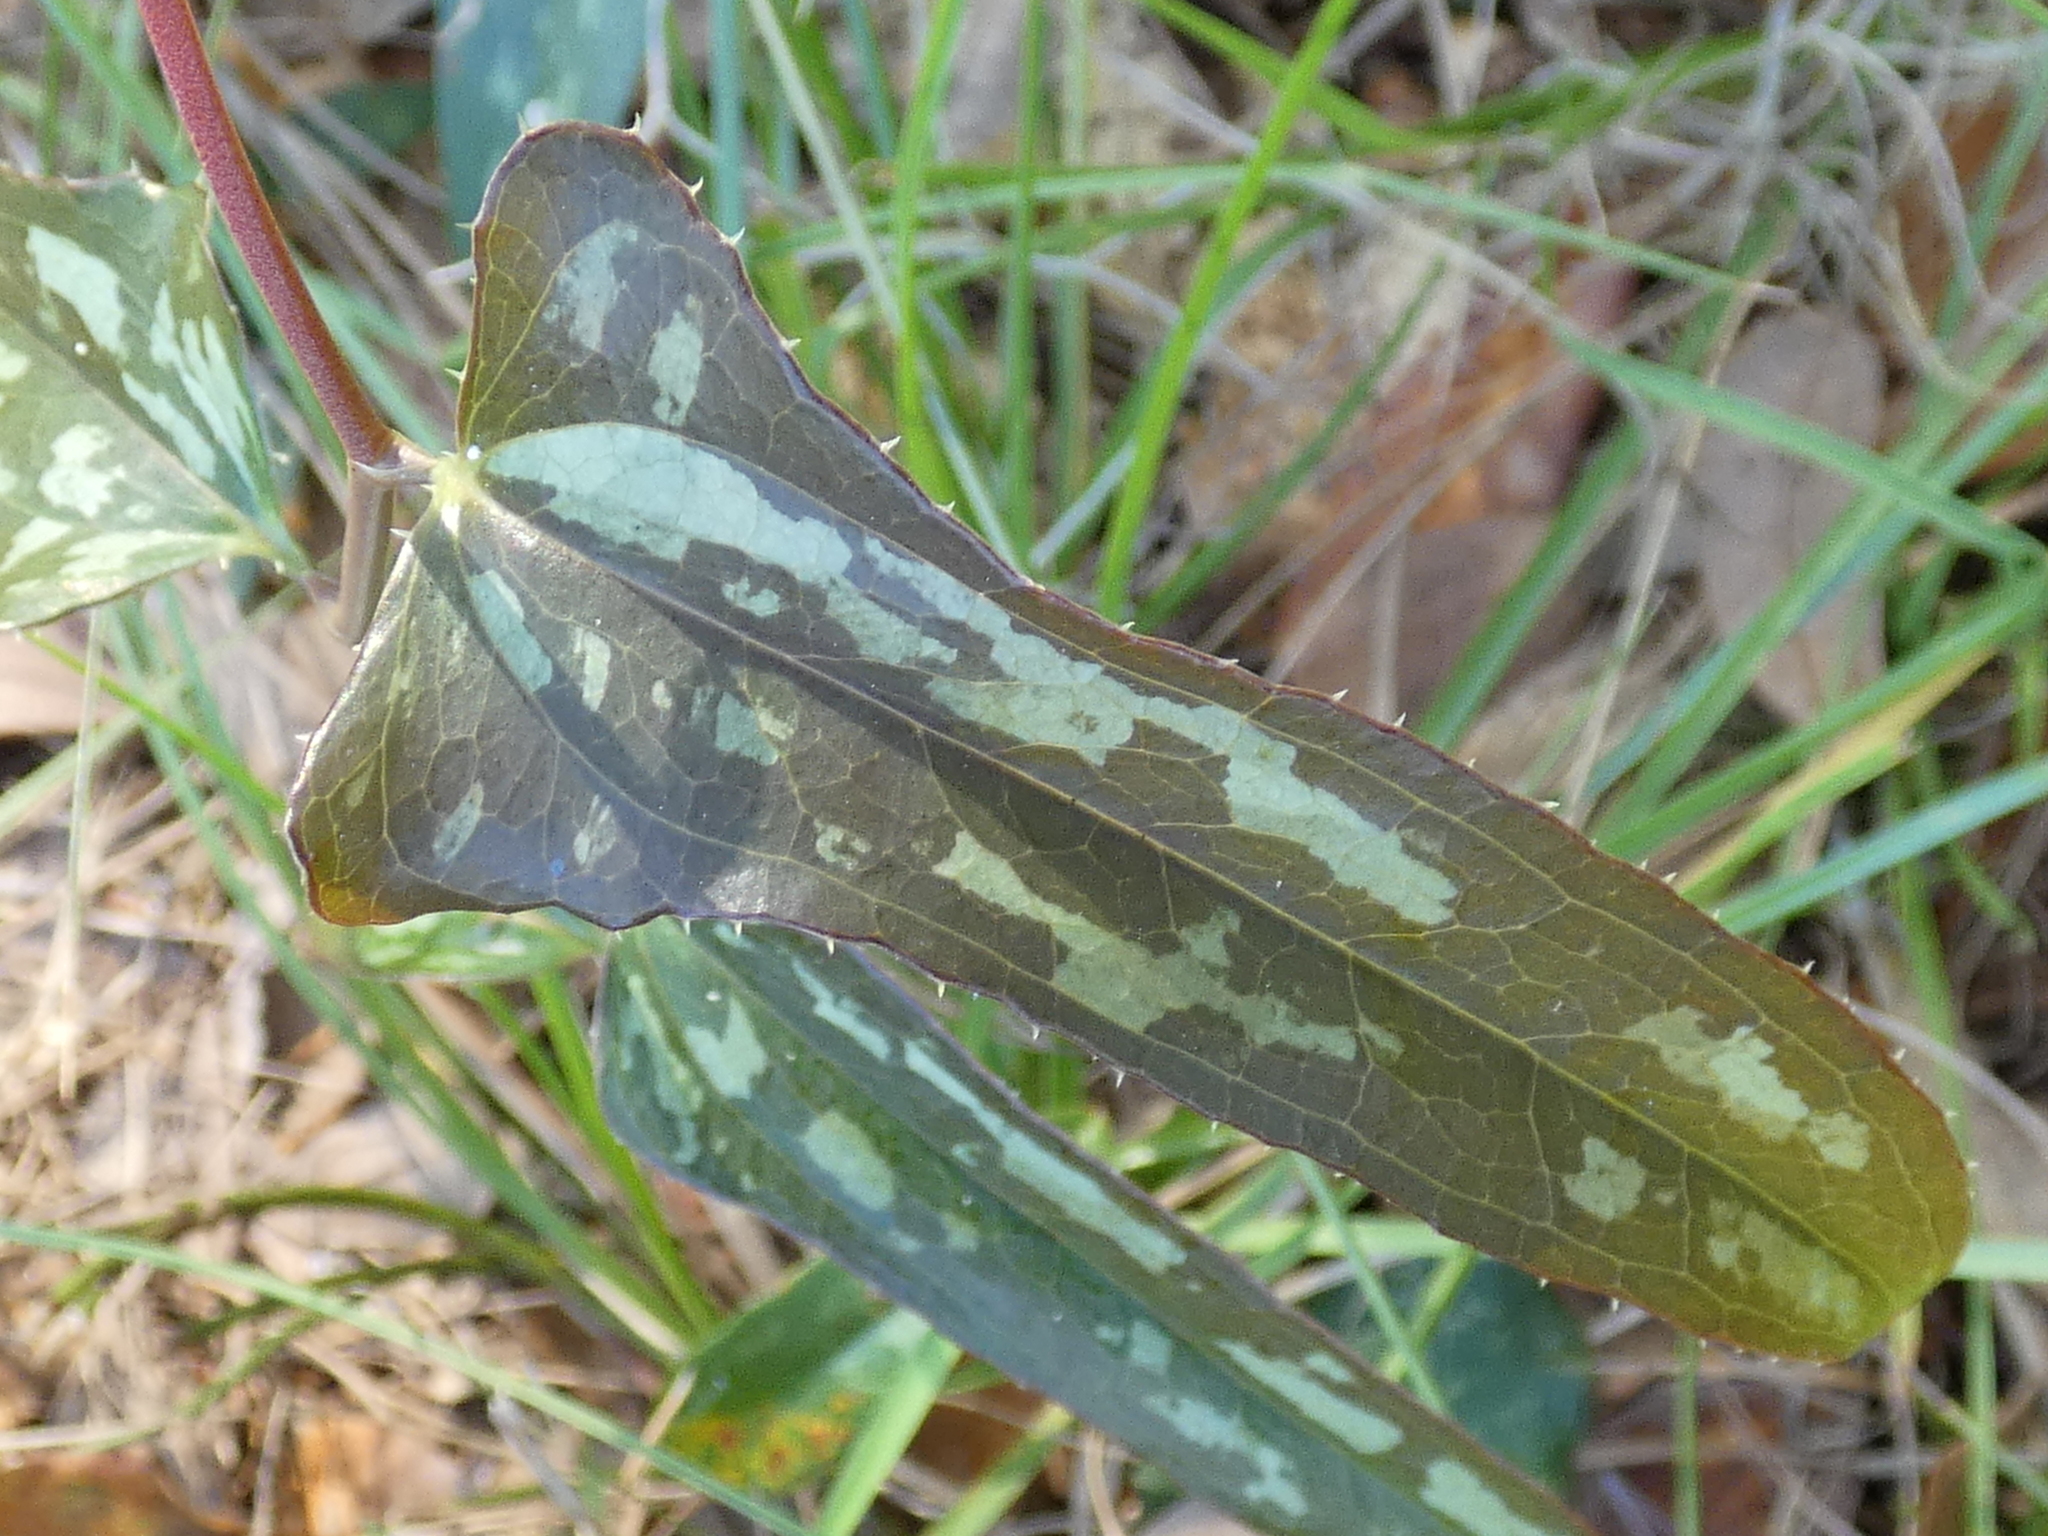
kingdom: Plantae
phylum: Tracheophyta
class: Liliopsida
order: Liliales
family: Smilacaceae
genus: Smilax
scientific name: Smilax bona-nox
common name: Catbrier
